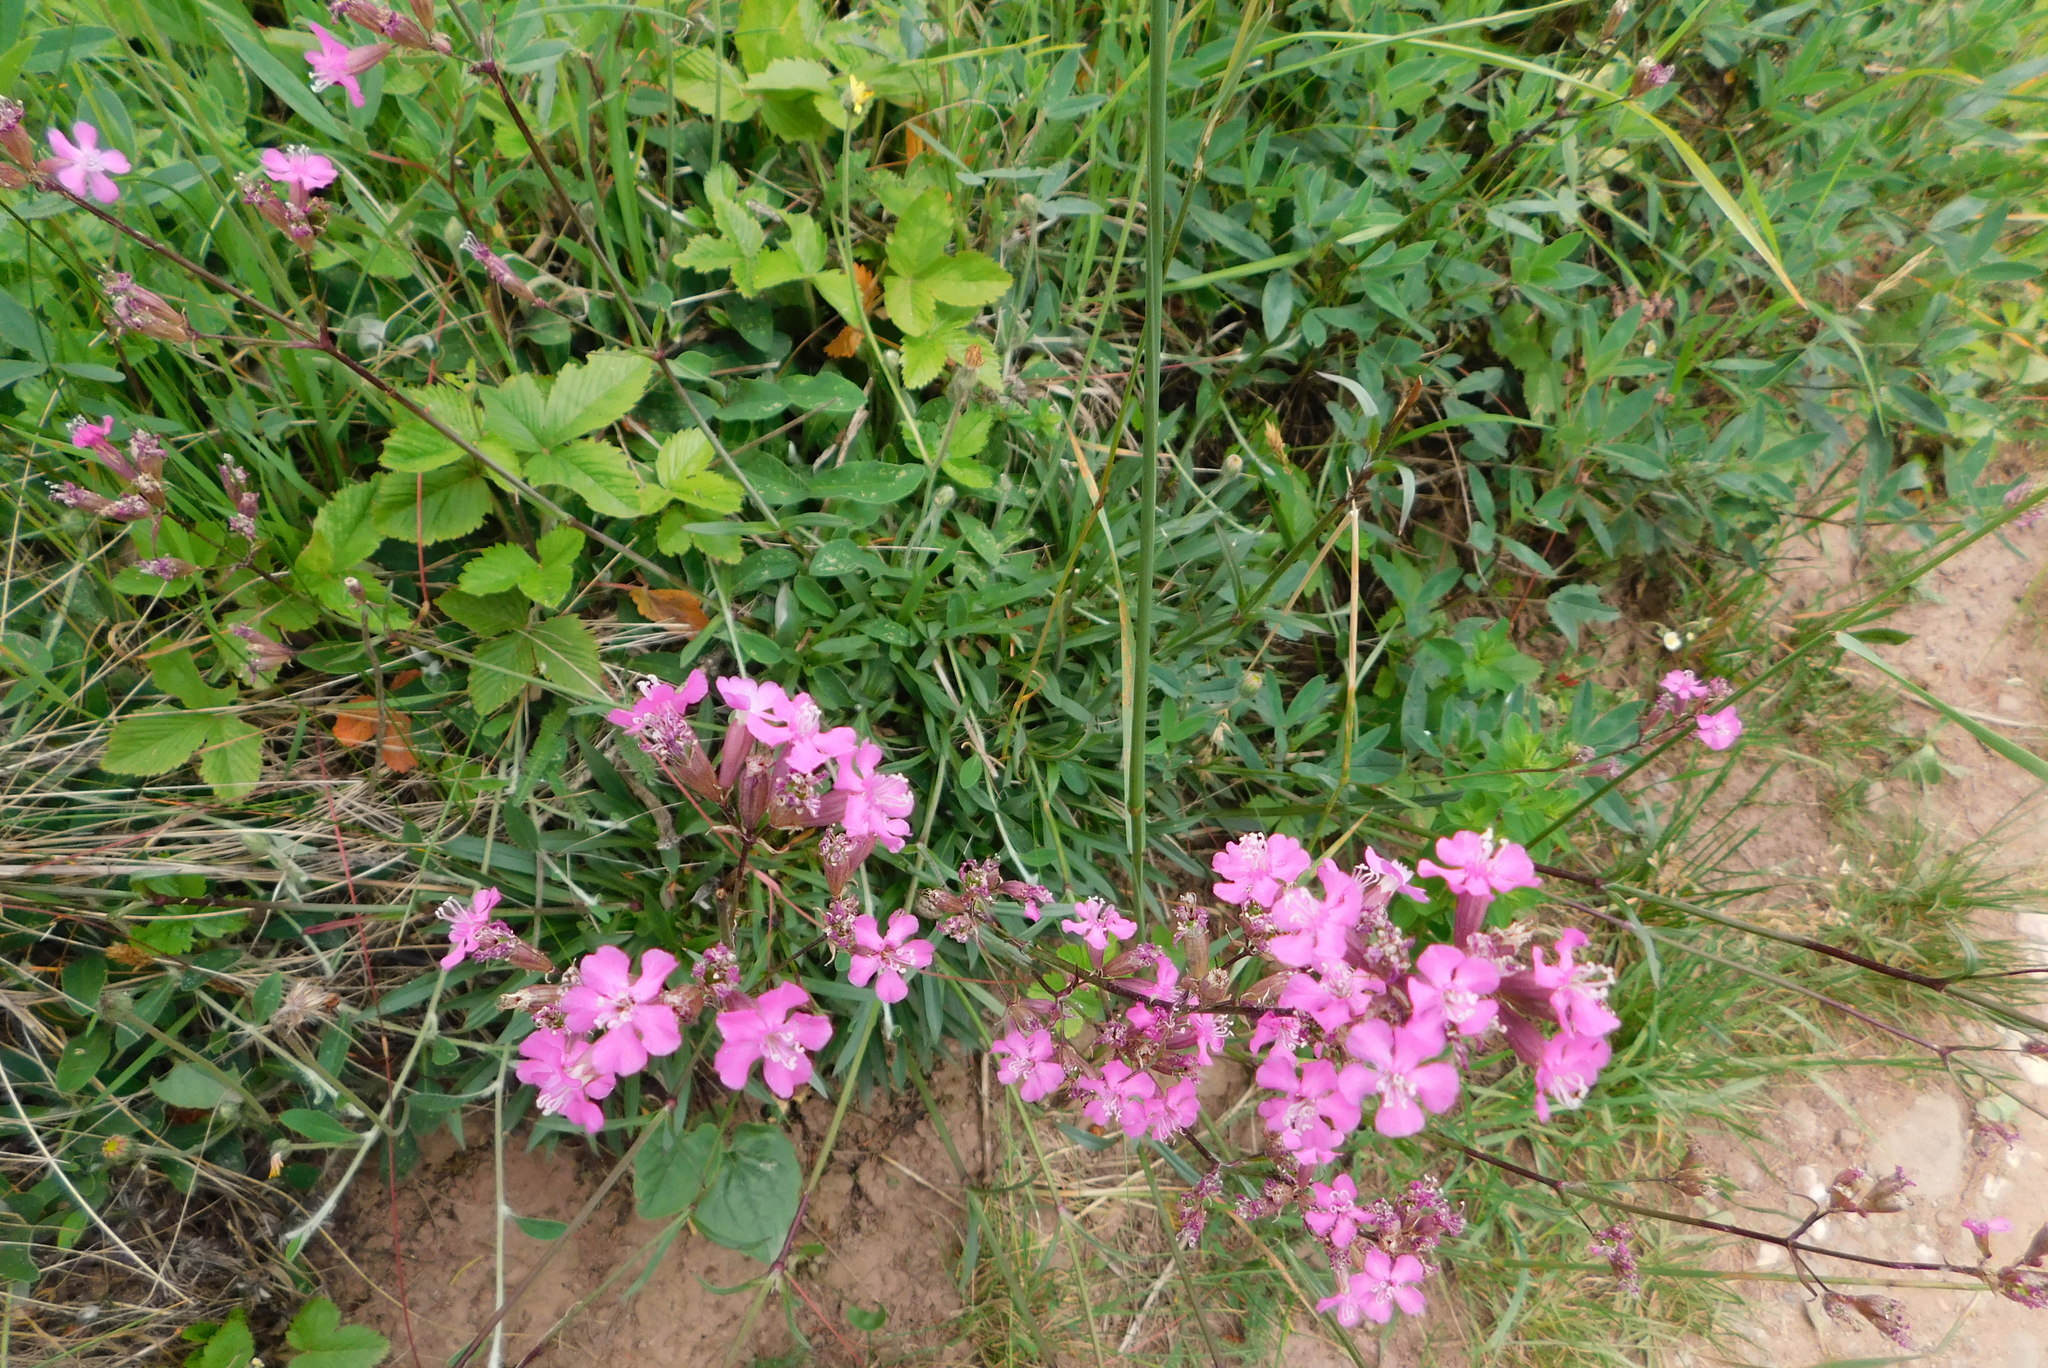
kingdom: Plantae
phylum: Tracheophyta
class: Magnoliopsida
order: Caryophyllales
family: Caryophyllaceae
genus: Viscaria
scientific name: Viscaria vulgaris
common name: Clammy campion
